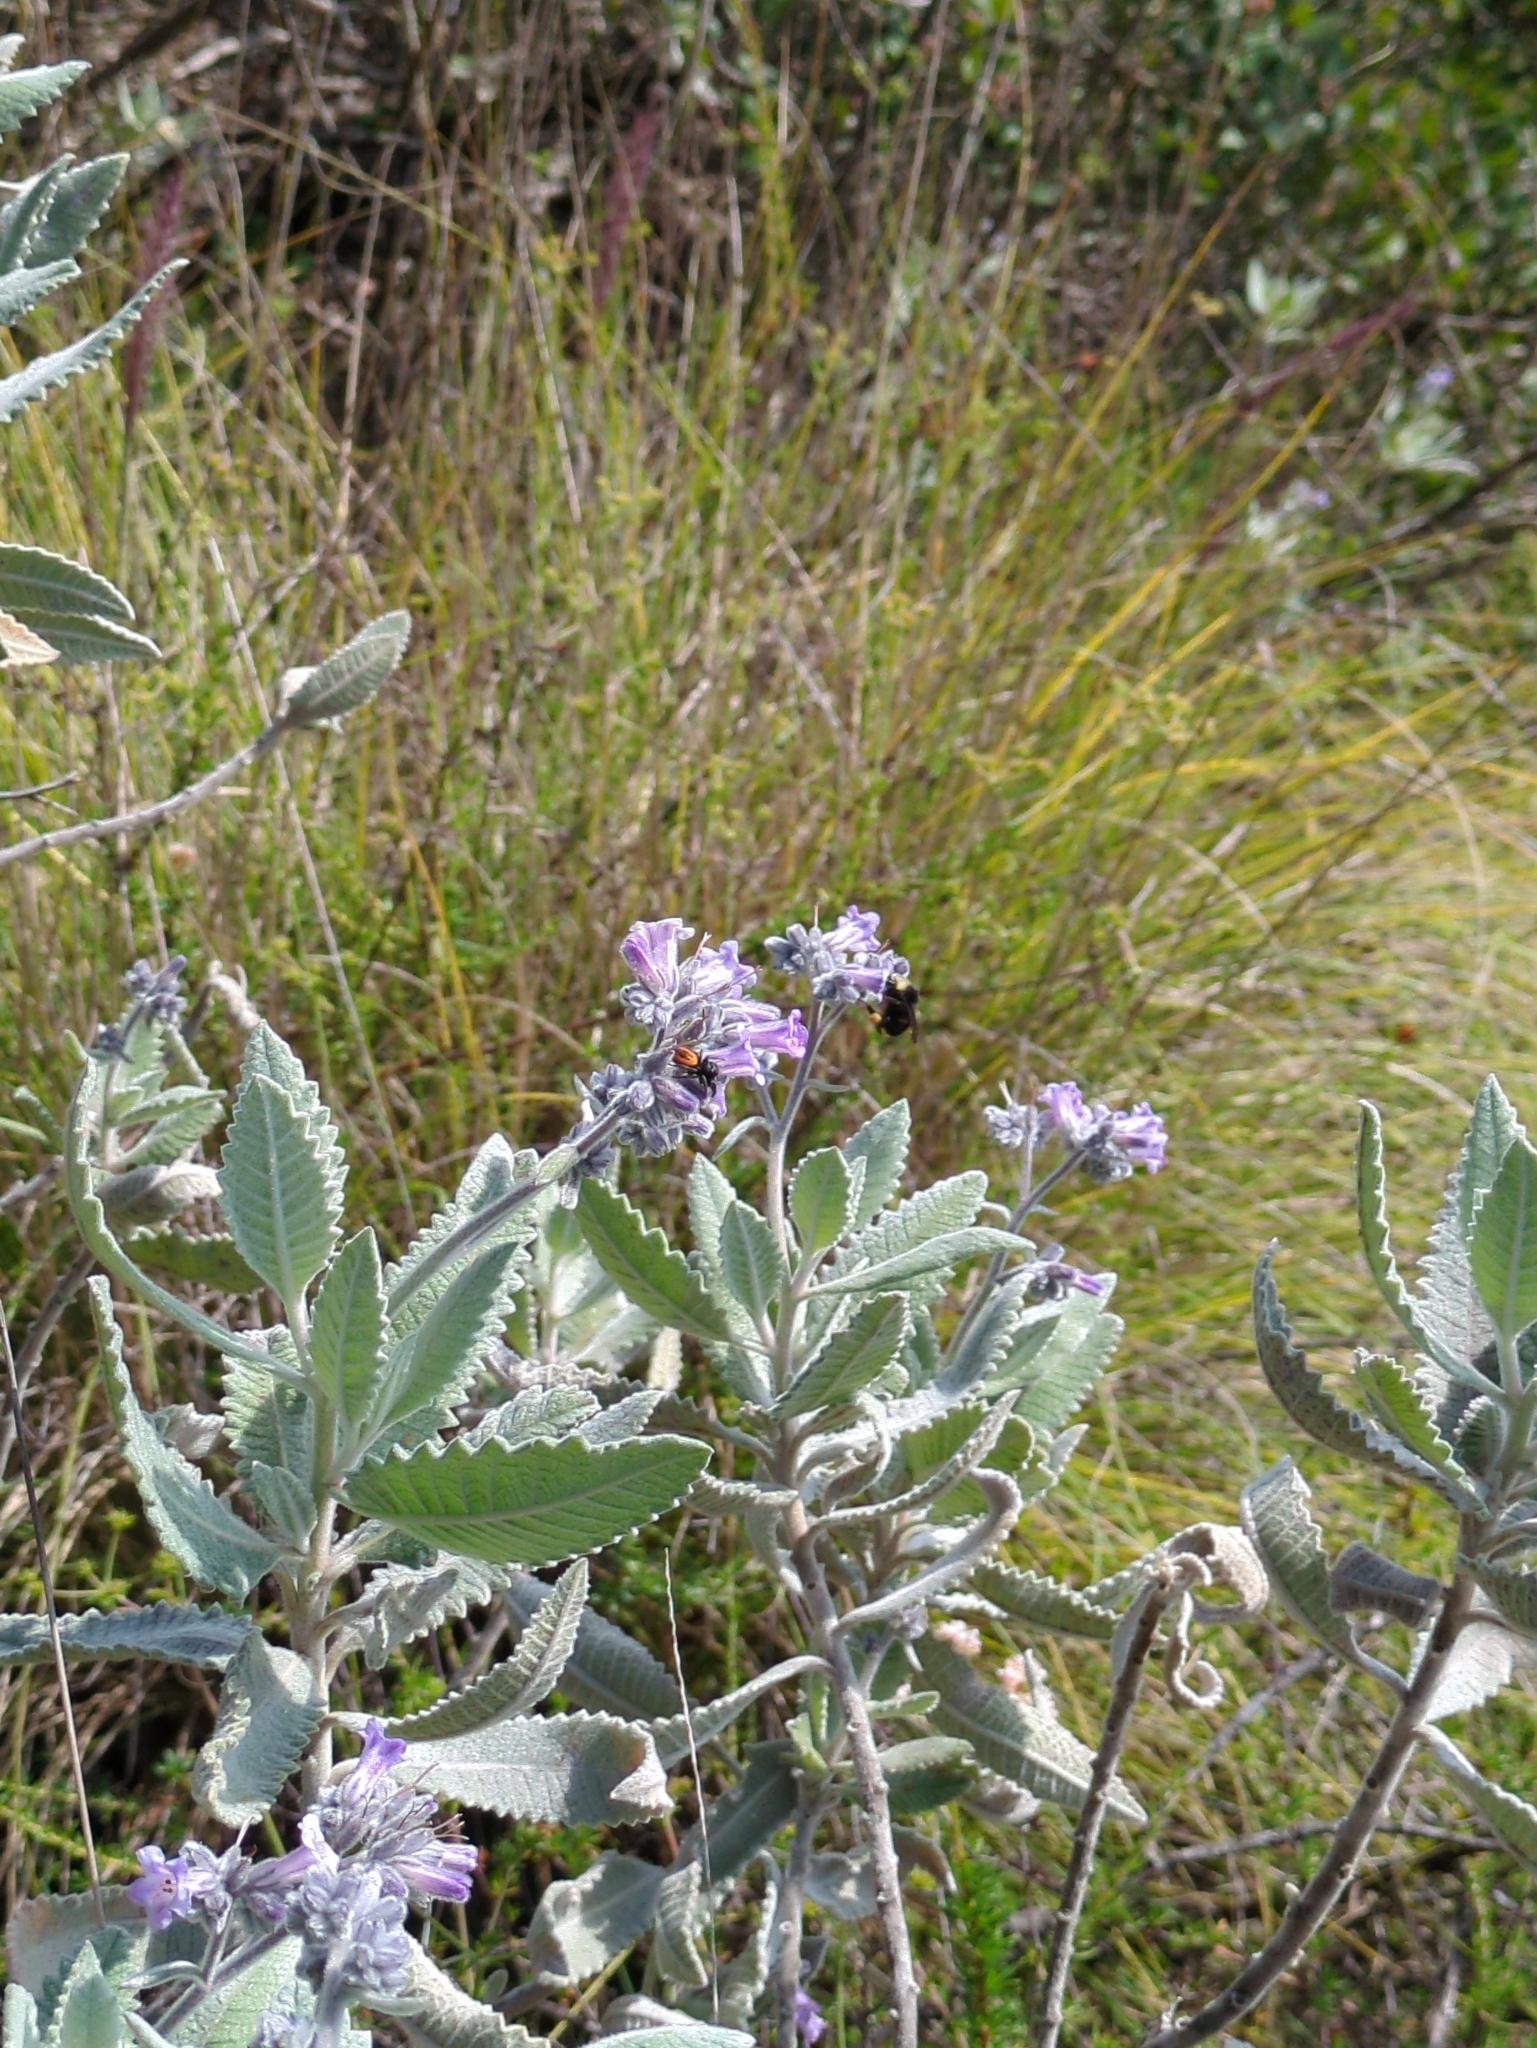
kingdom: Animalia
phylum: Arthropoda
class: Insecta
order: Hymenoptera
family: Apidae
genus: Bombus
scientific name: Bombus vosnesenskii
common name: Vosnesensky bumble bee
